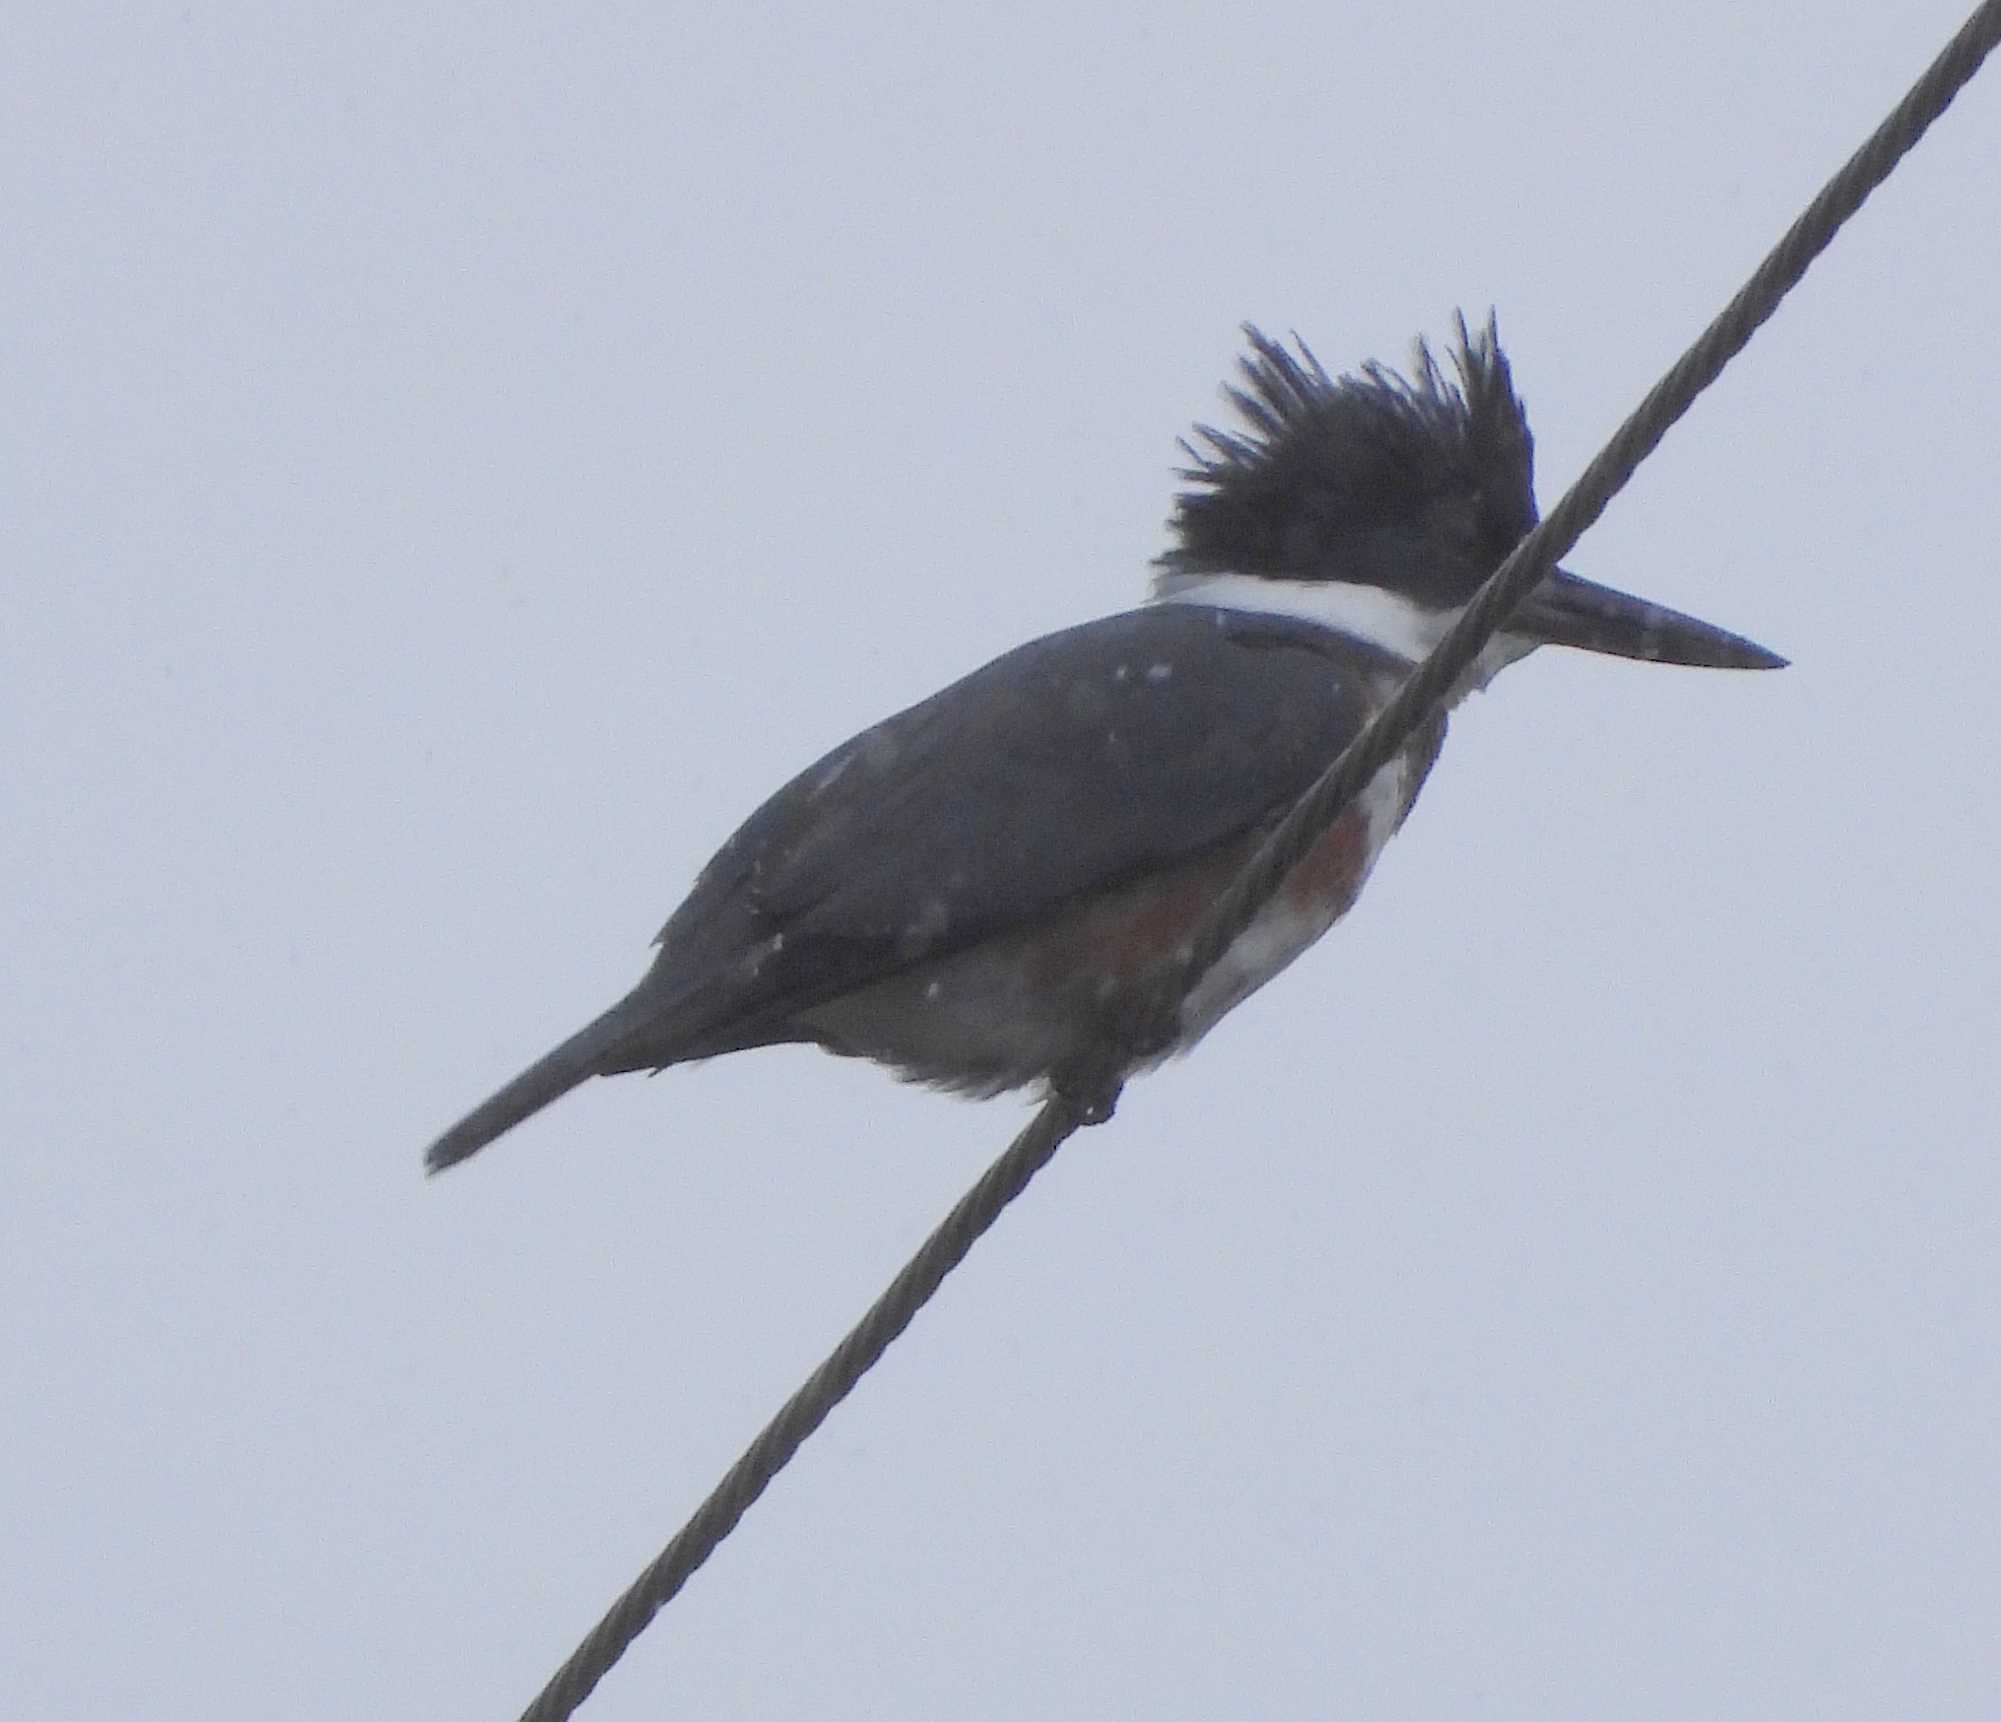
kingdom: Animalia
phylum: Chordata
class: Aves
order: Coraciiformes
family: Alcedinidae
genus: Megaceryle
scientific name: Megaceryle alcyon
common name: Belted kingfisher
